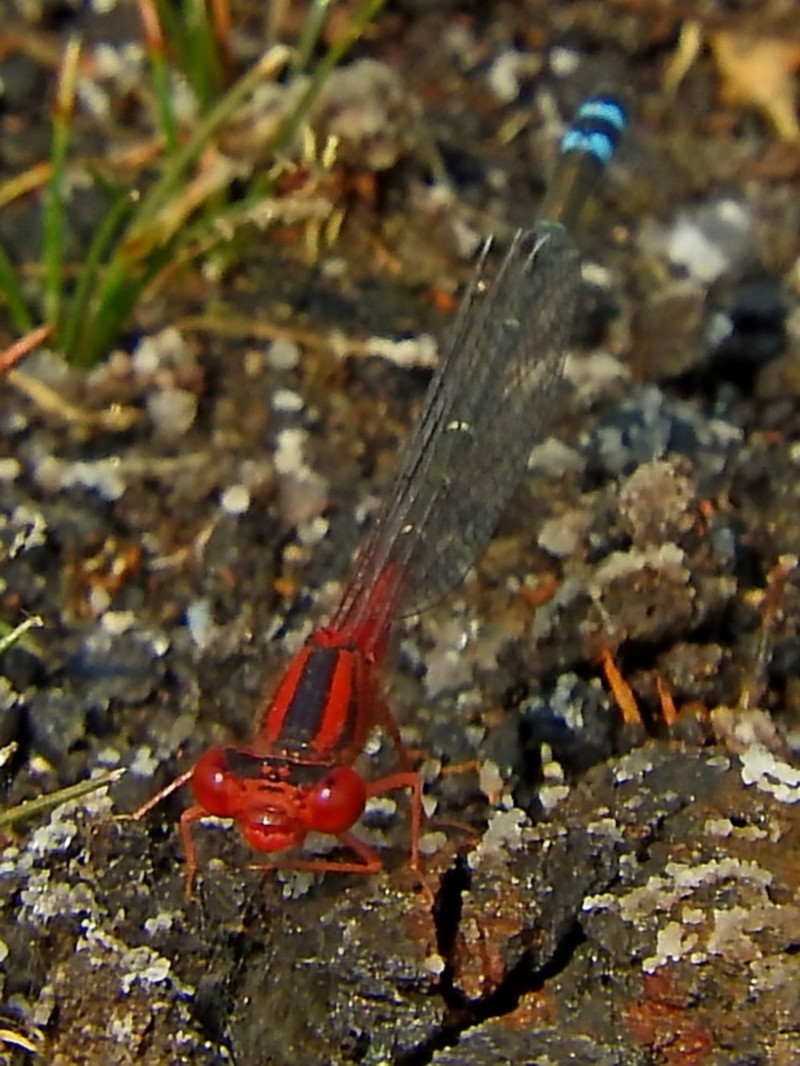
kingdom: Animalia
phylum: Arthropoda
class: Insecta
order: Odonata
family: Coenagrionidae
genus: Xanthagrion
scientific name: Xanthagrion erythroneurum
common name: Red and blue damsel
